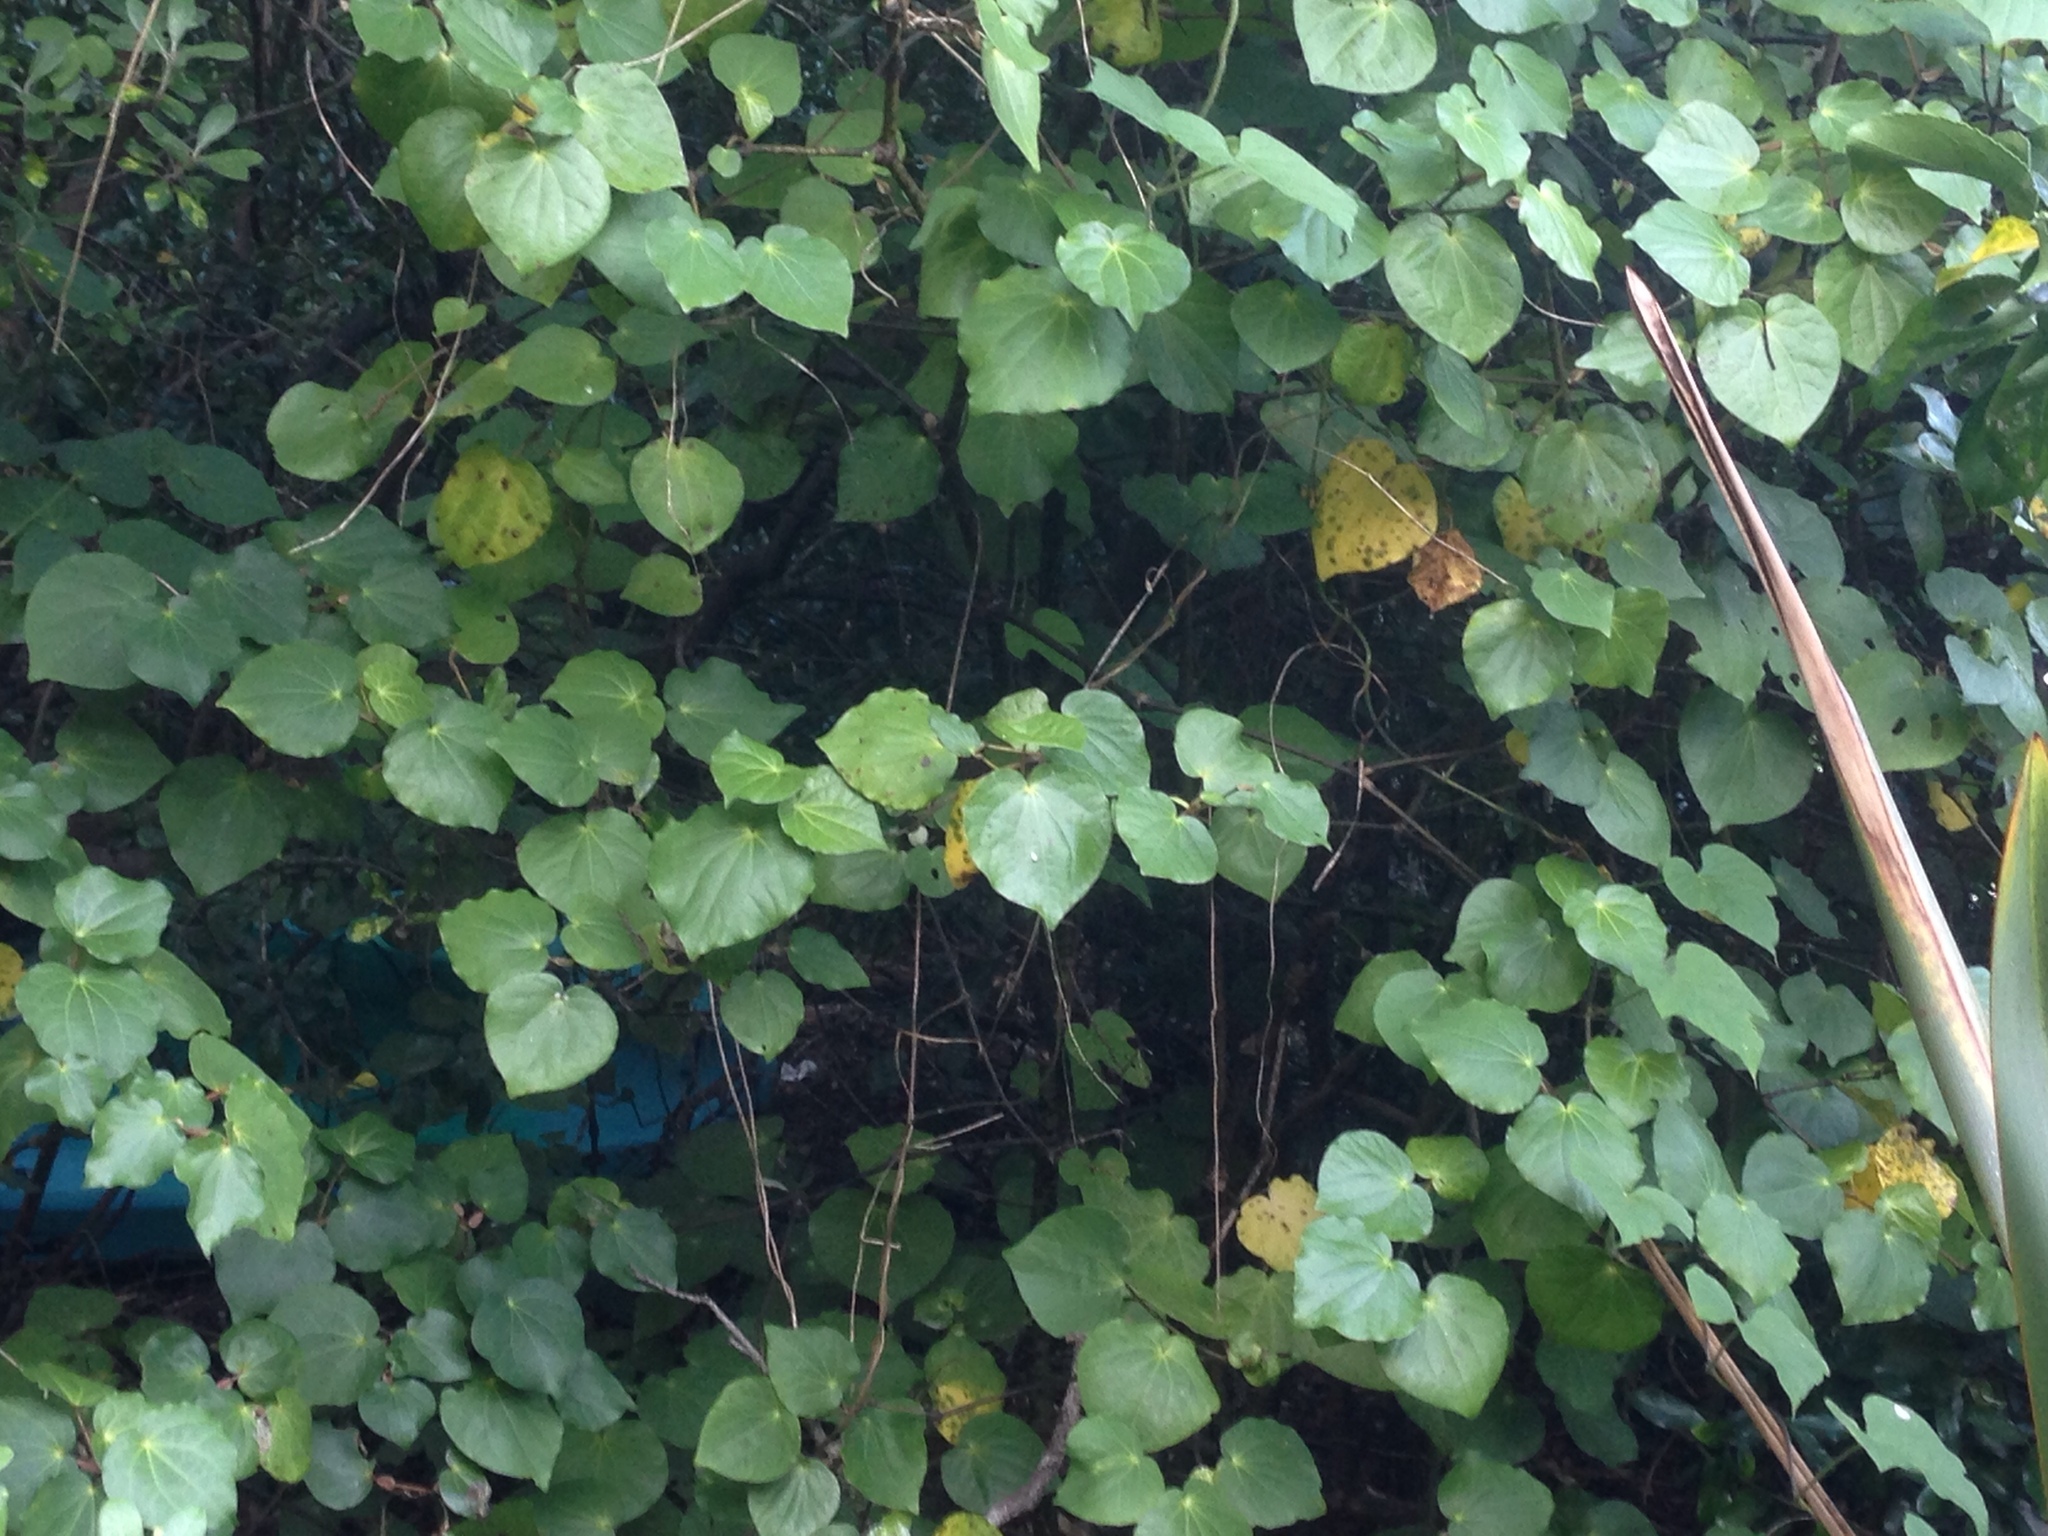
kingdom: Plantae
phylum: Tracheophyta
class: Magnoliopsida
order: Piperales
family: Piperaceae
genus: Macropiper
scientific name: Macropiper excelsum
